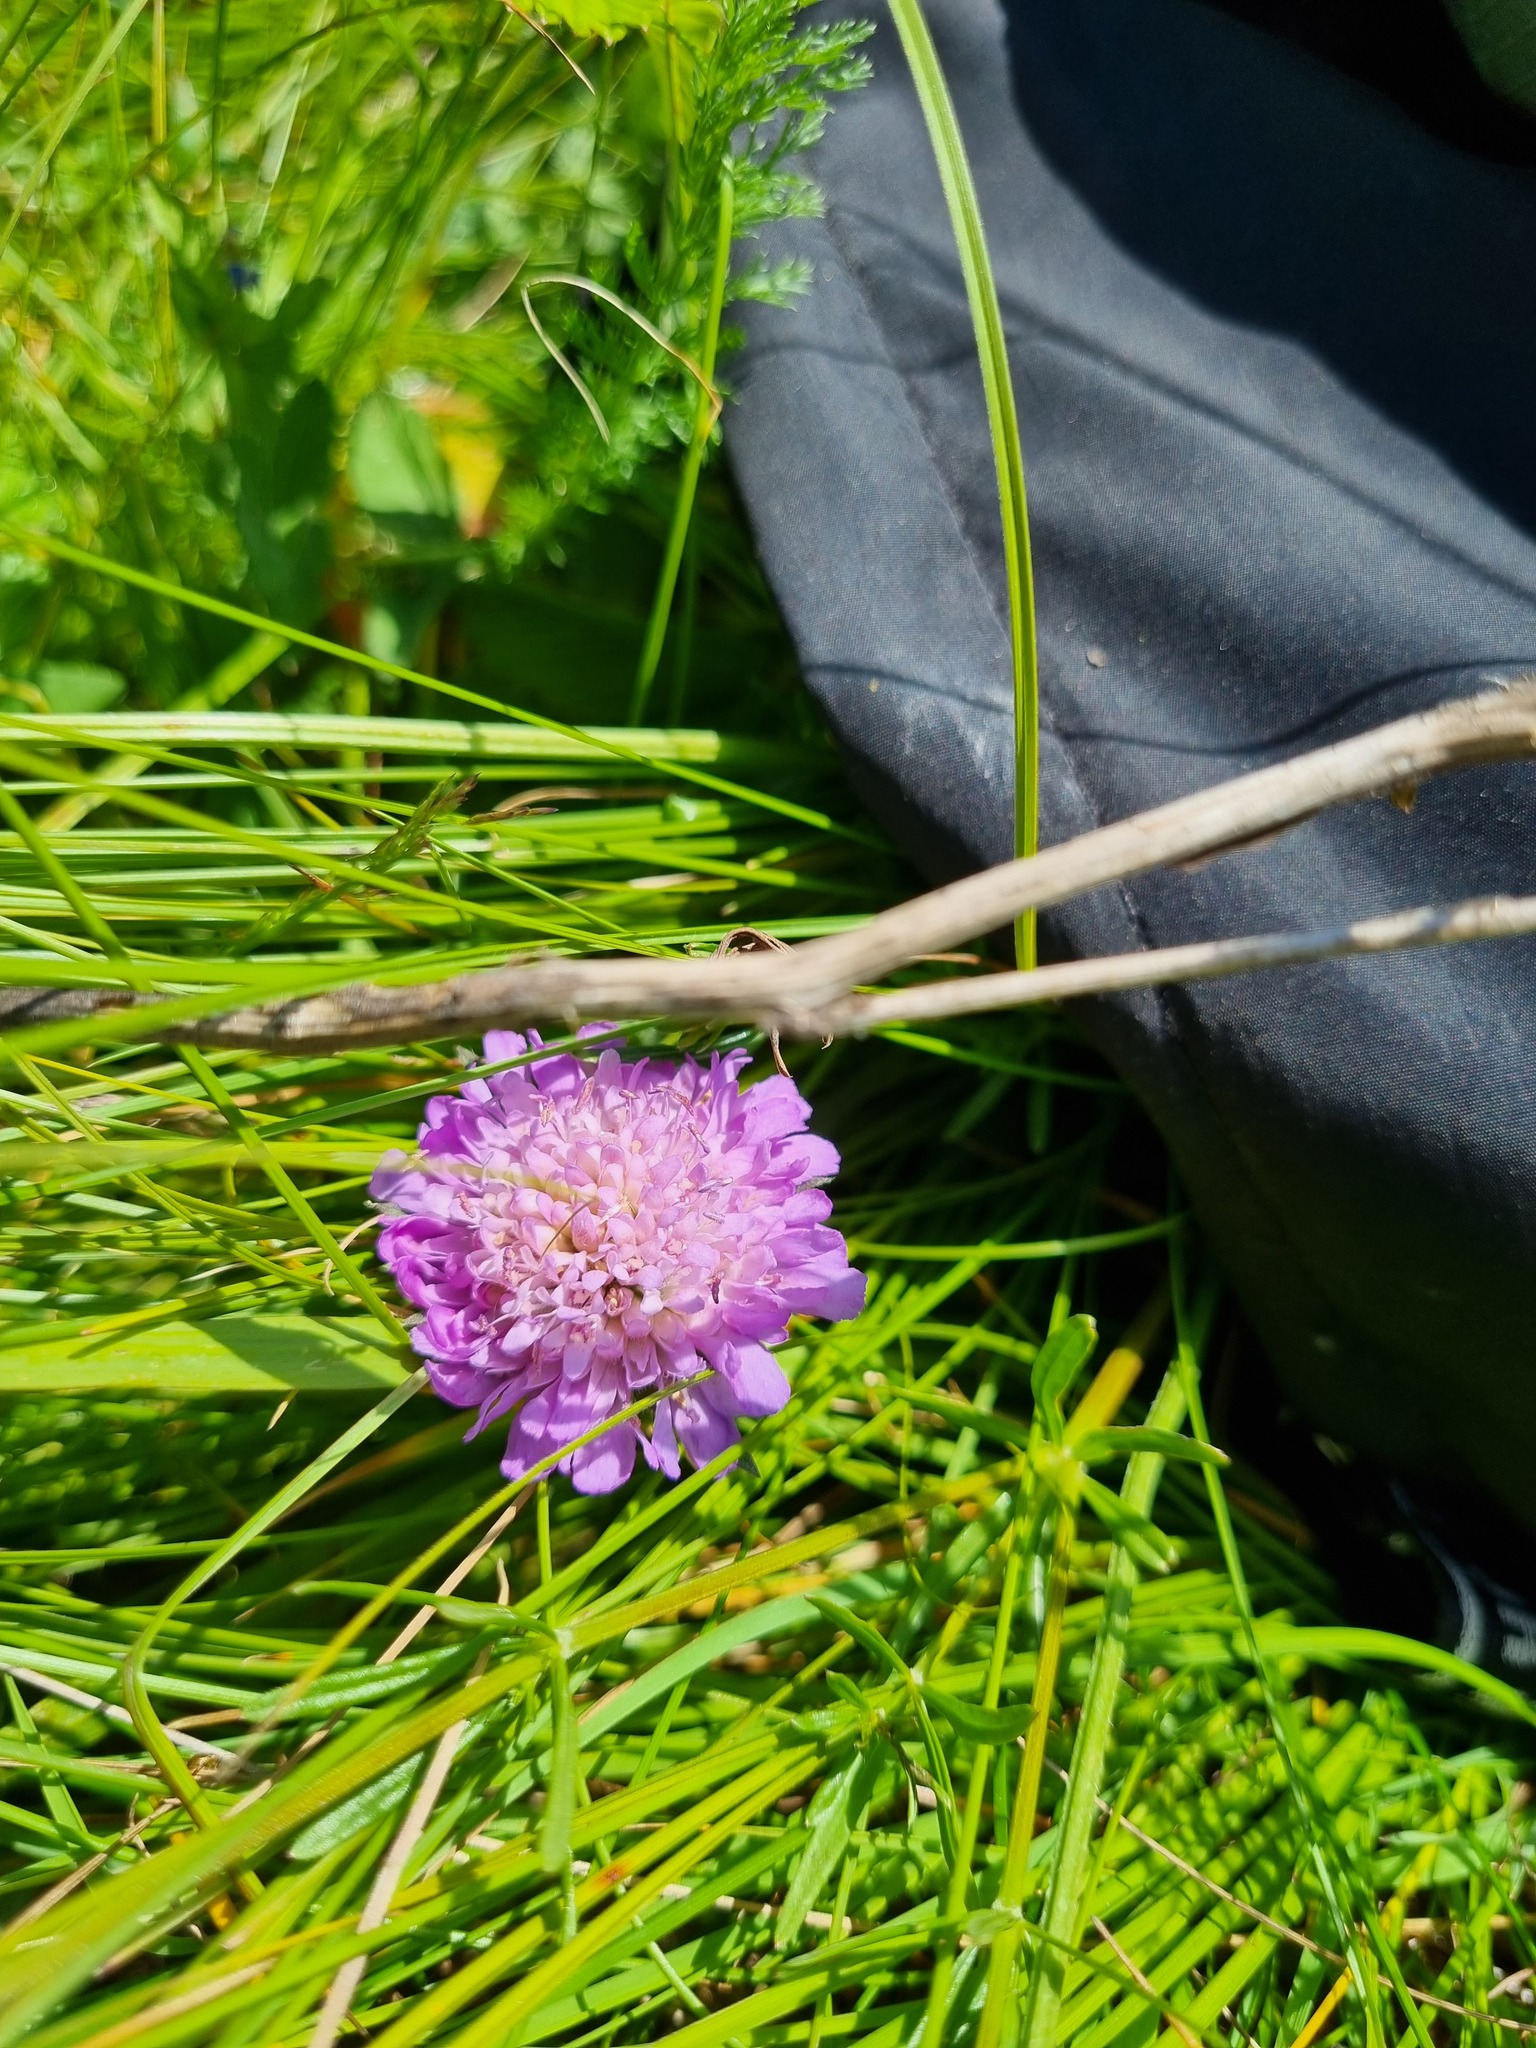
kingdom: Plantae
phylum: Tracheophyta
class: Magnoliopsida
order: Dipsacales
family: Caprifoliaceae
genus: Knautia
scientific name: Knautia arvensis
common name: Field scabiosa
